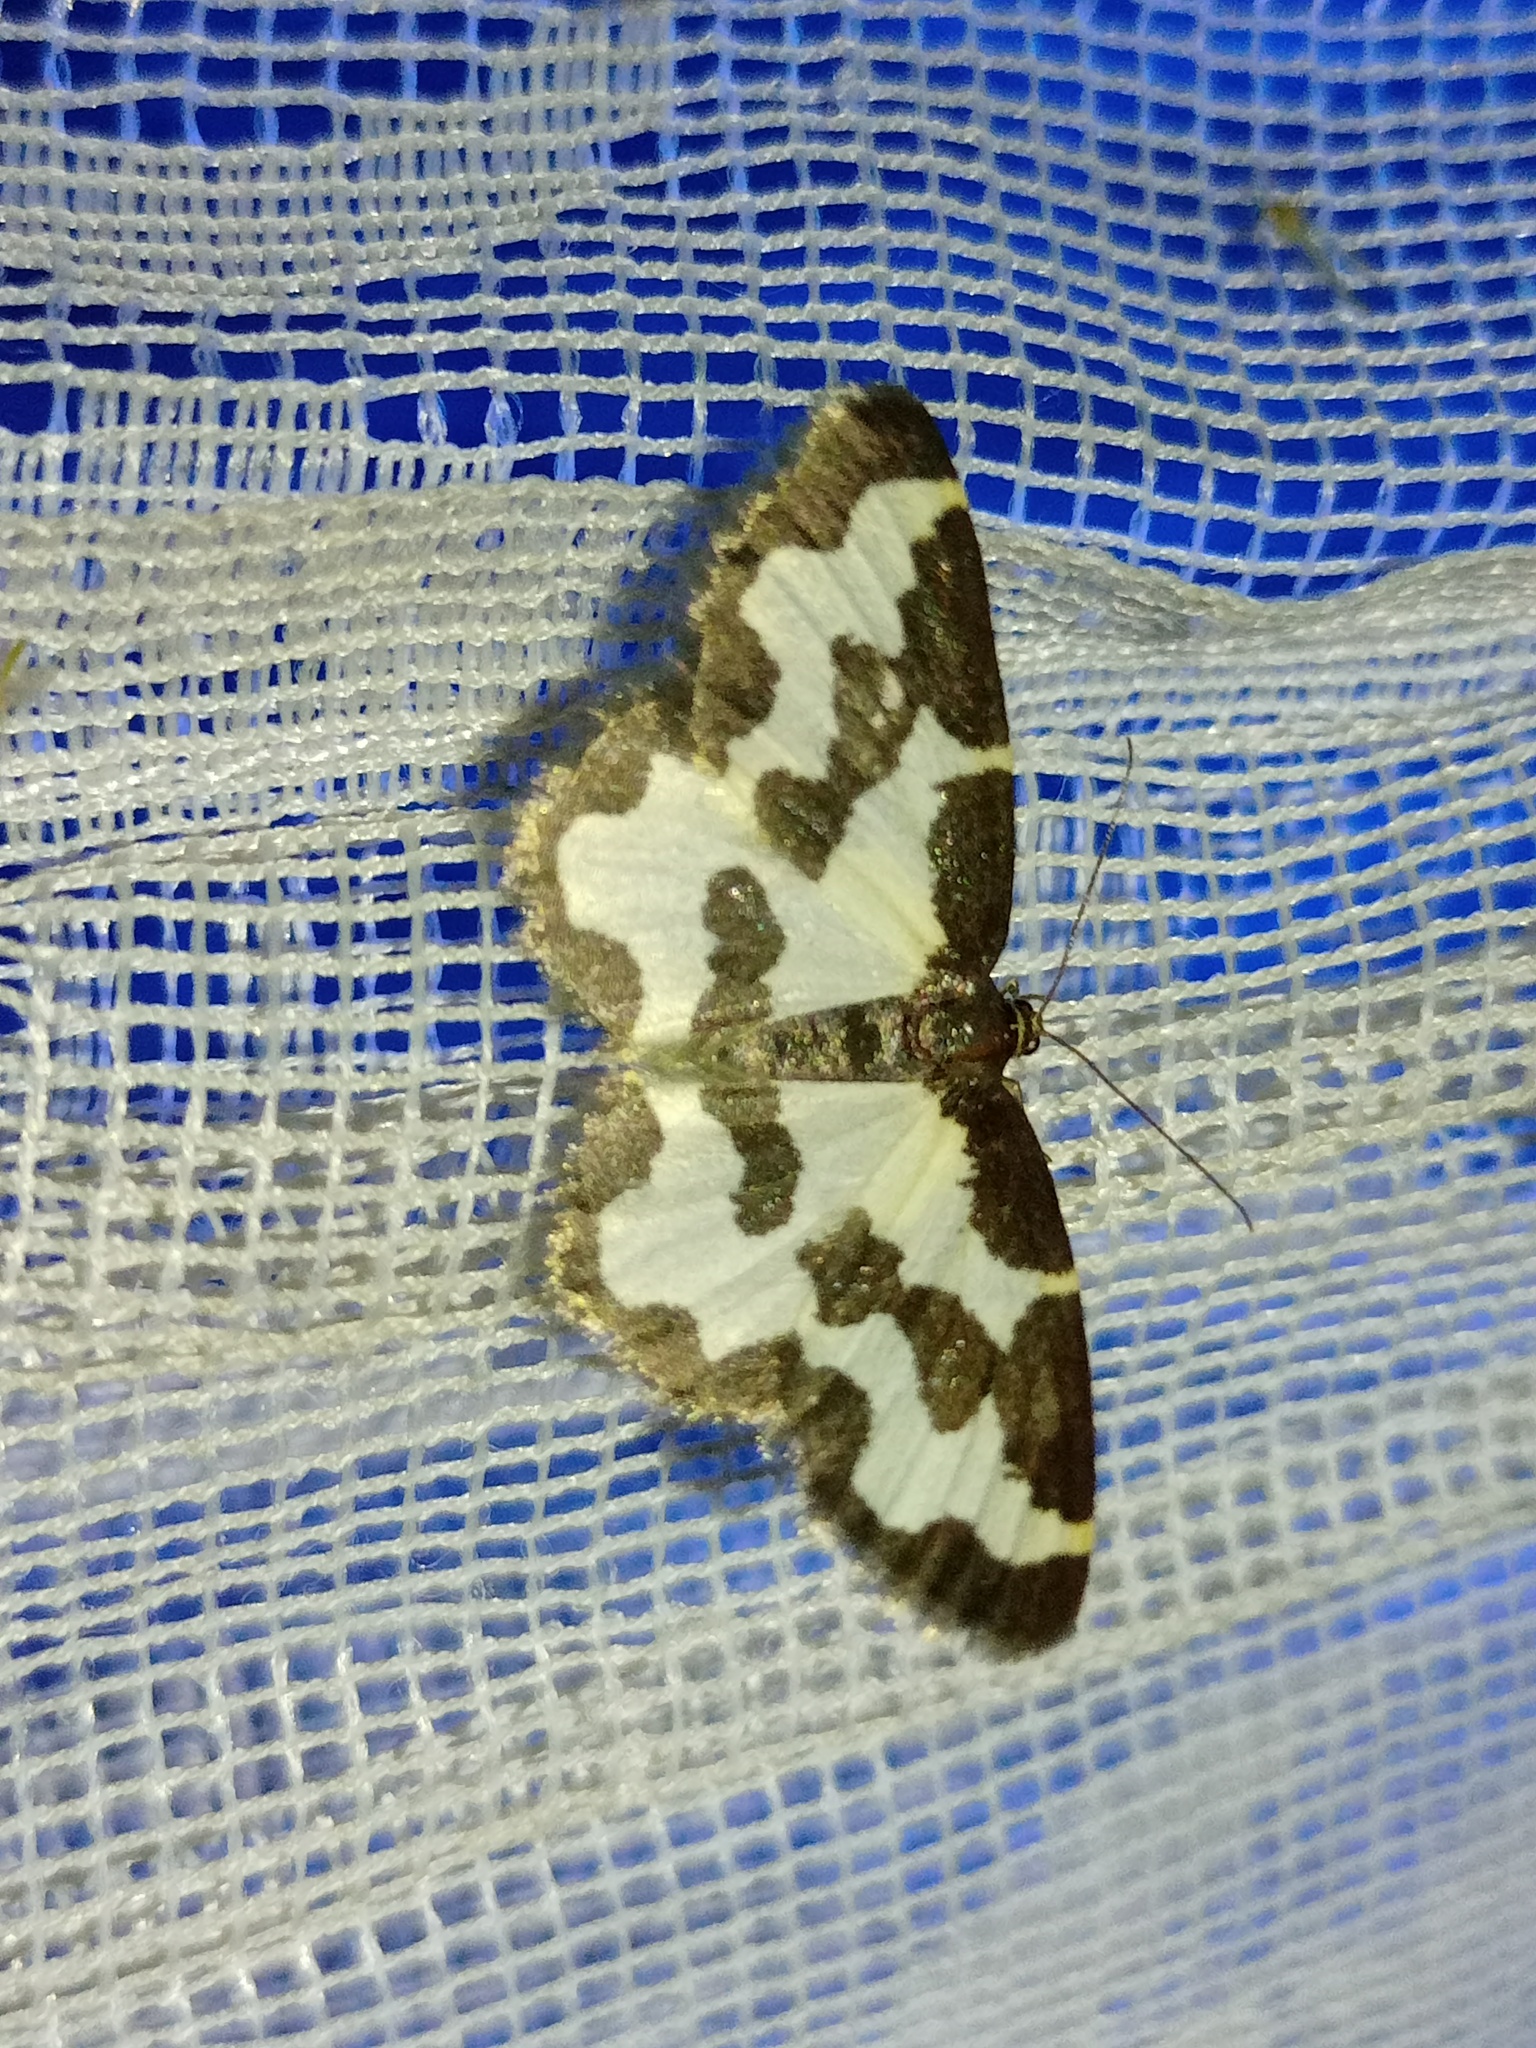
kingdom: Animalia
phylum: Arthropoda
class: Insecta
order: Lepidoptera
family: Geometridae
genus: Lomaspilis
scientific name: Lomaspilis marginata
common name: Clouded border
